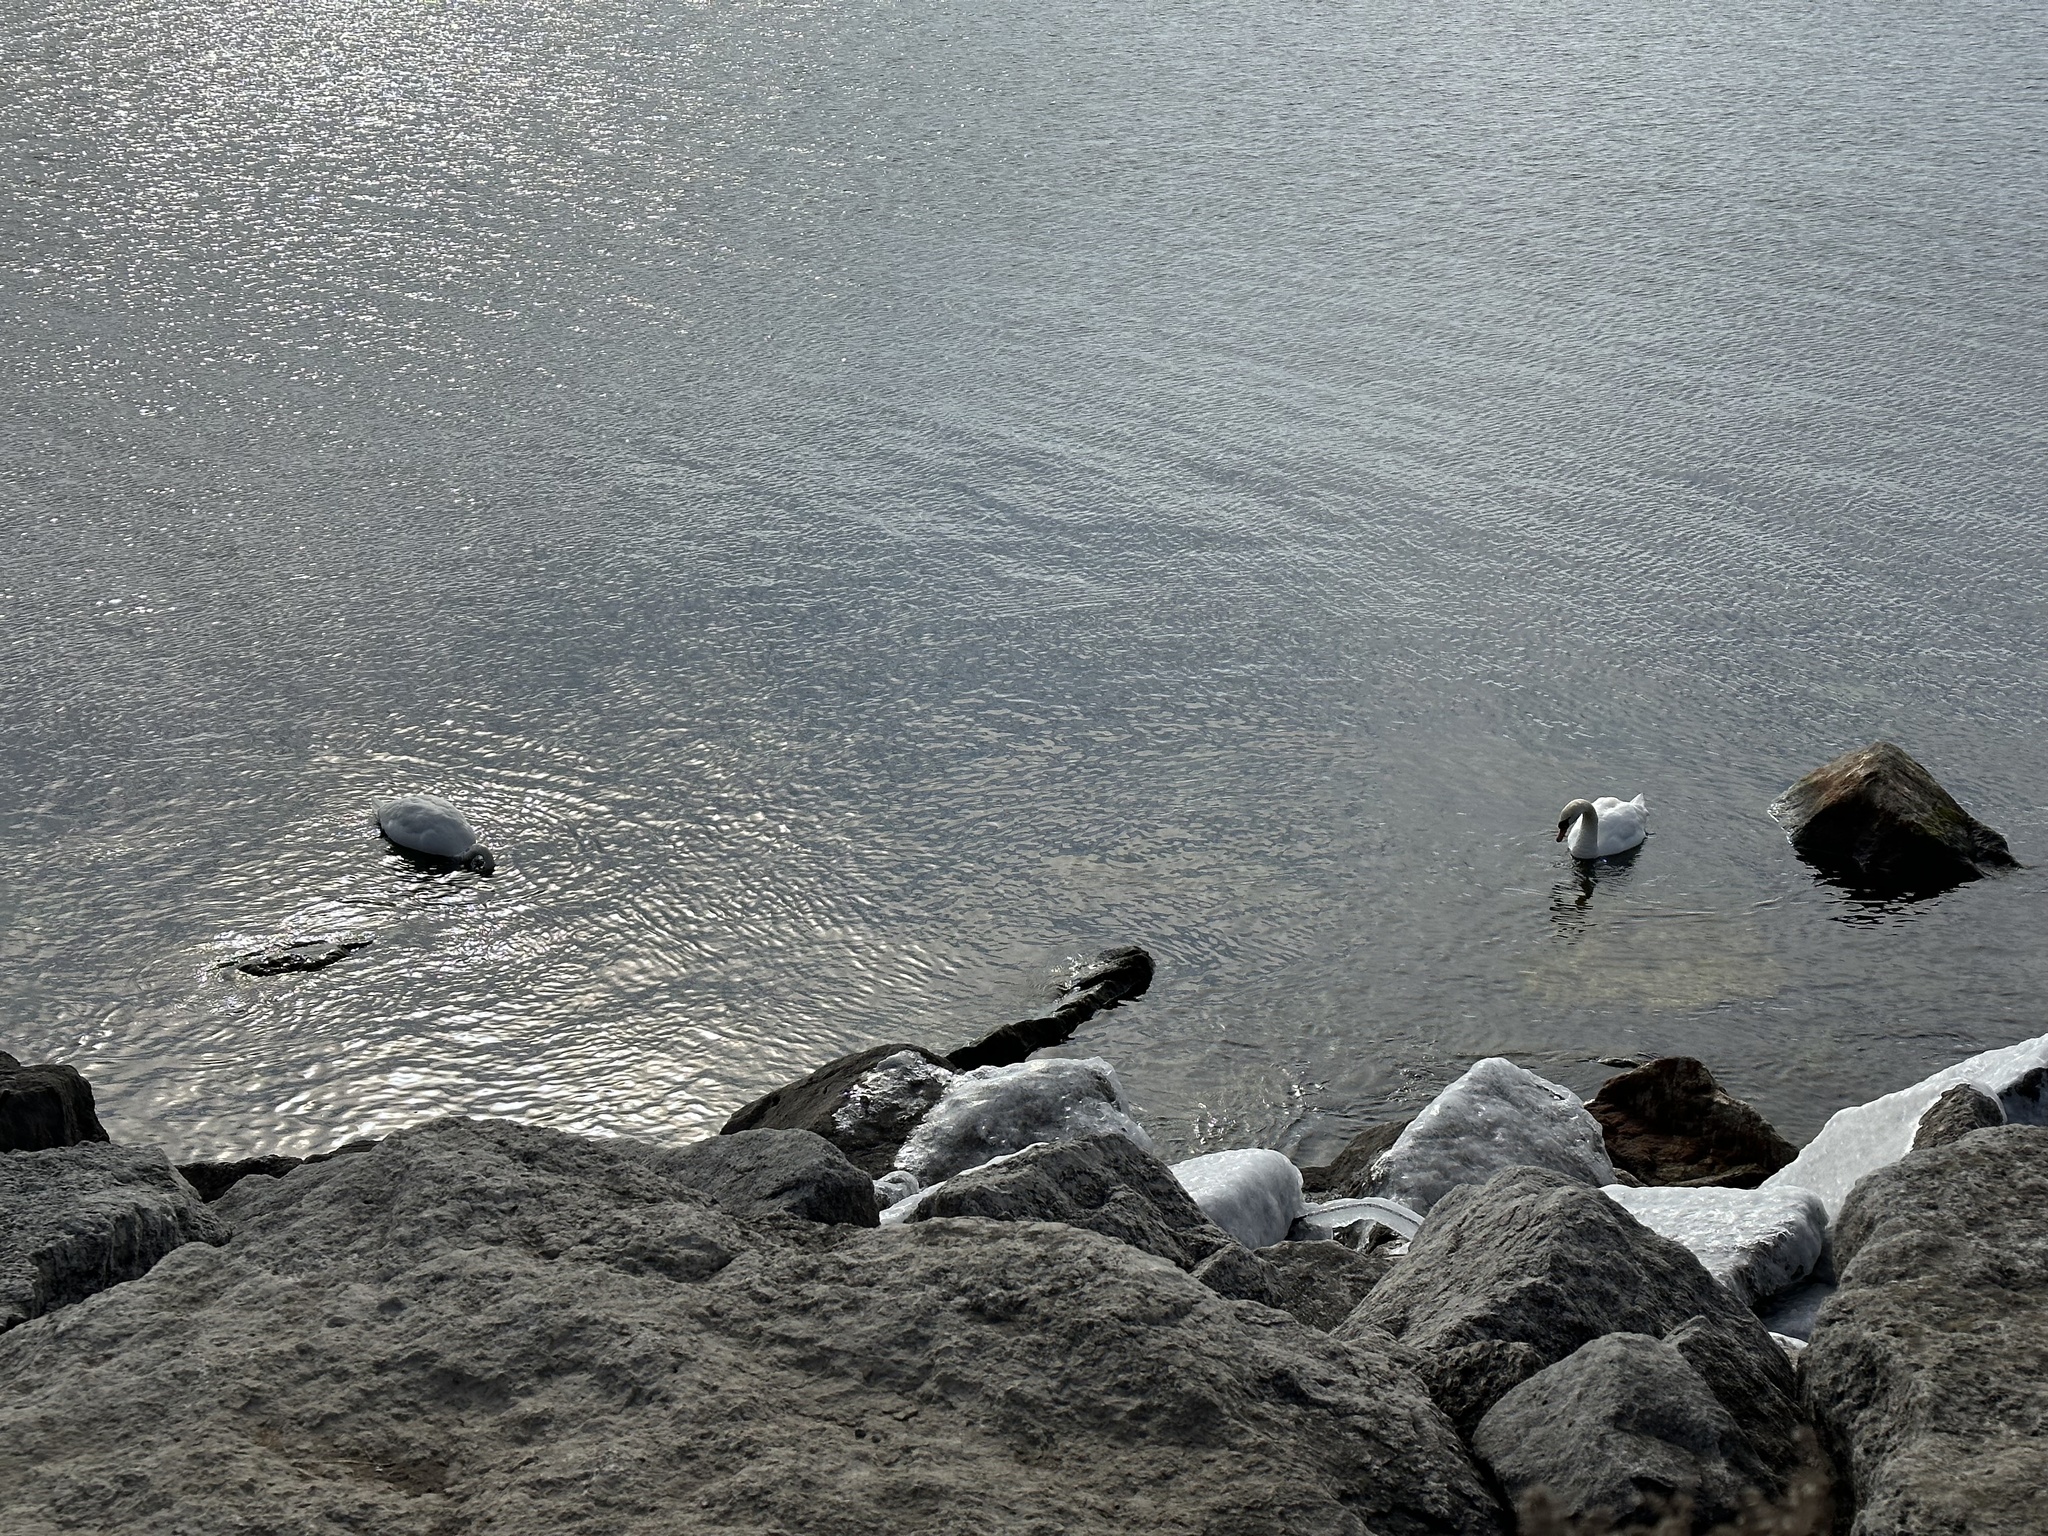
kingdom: Animalia
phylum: Chordata
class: Aves
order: Anseriformes
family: Anatidae
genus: Cygnus
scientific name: Cygnus olor
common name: Mute swan
